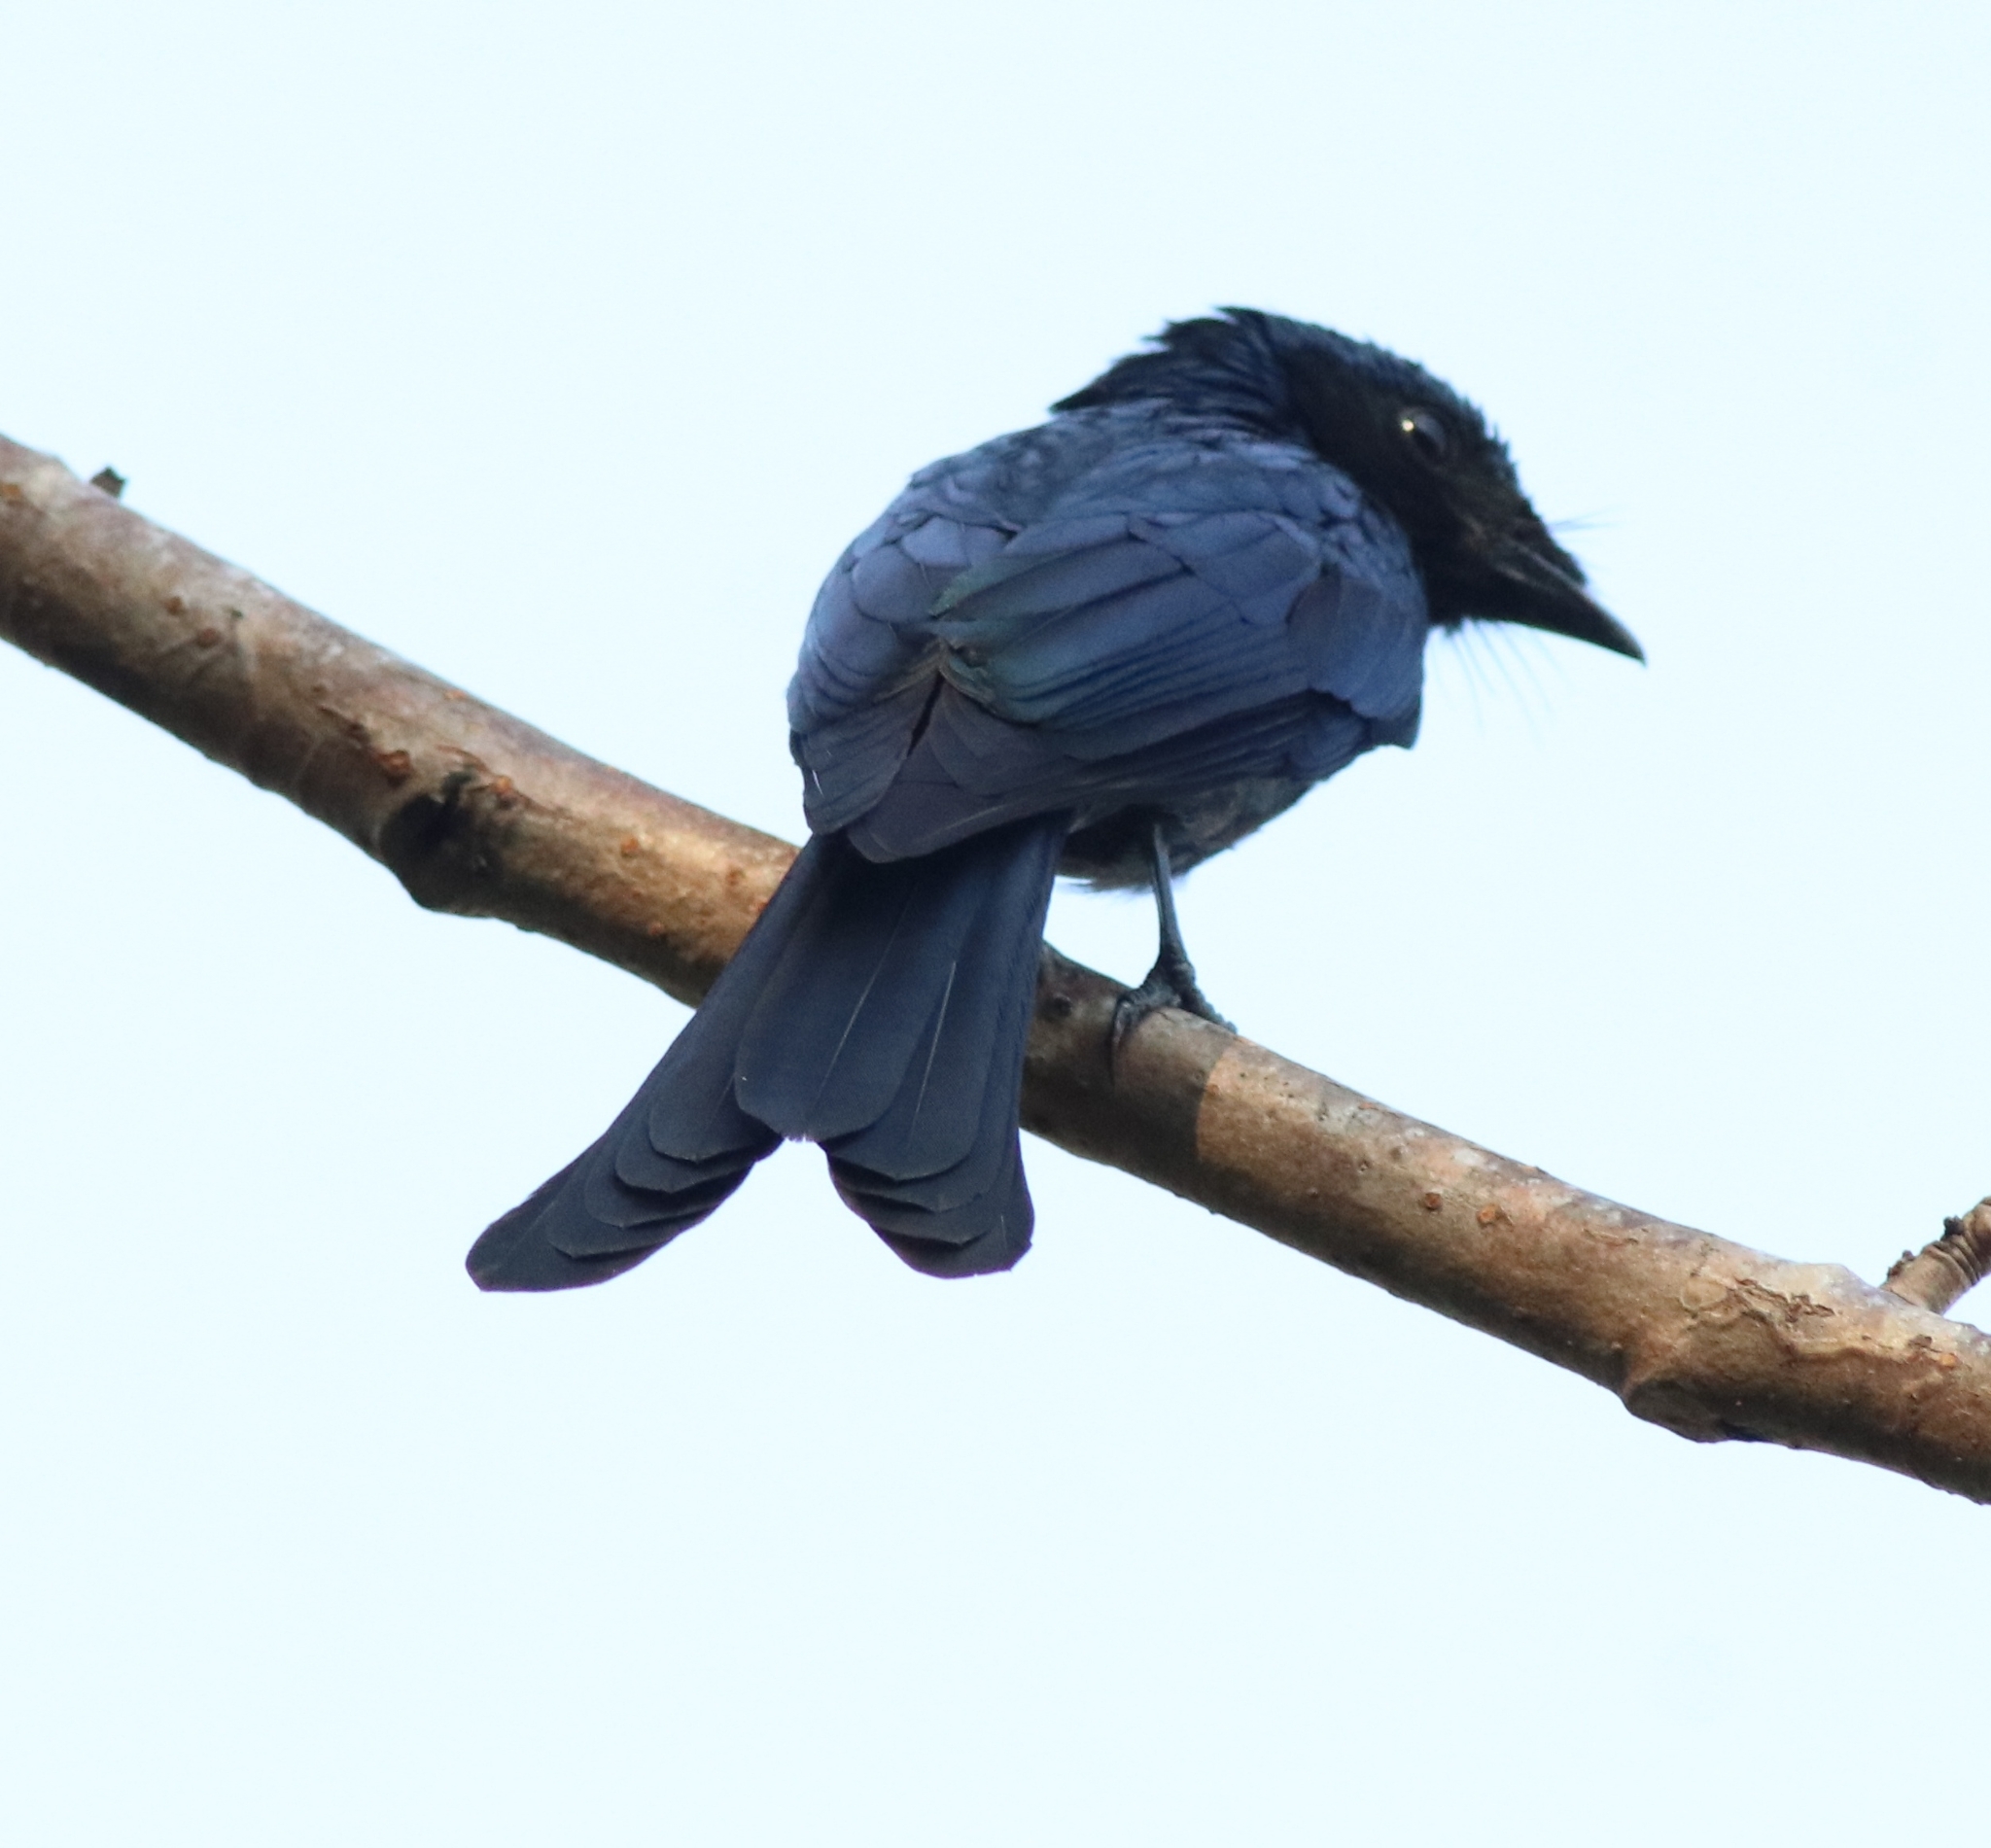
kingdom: Animalia
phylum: Chordata
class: Aves
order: Passeriformes
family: Dicruridae
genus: Dicrurus
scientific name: Dicrurus aeneus
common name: Bronzed drongo
